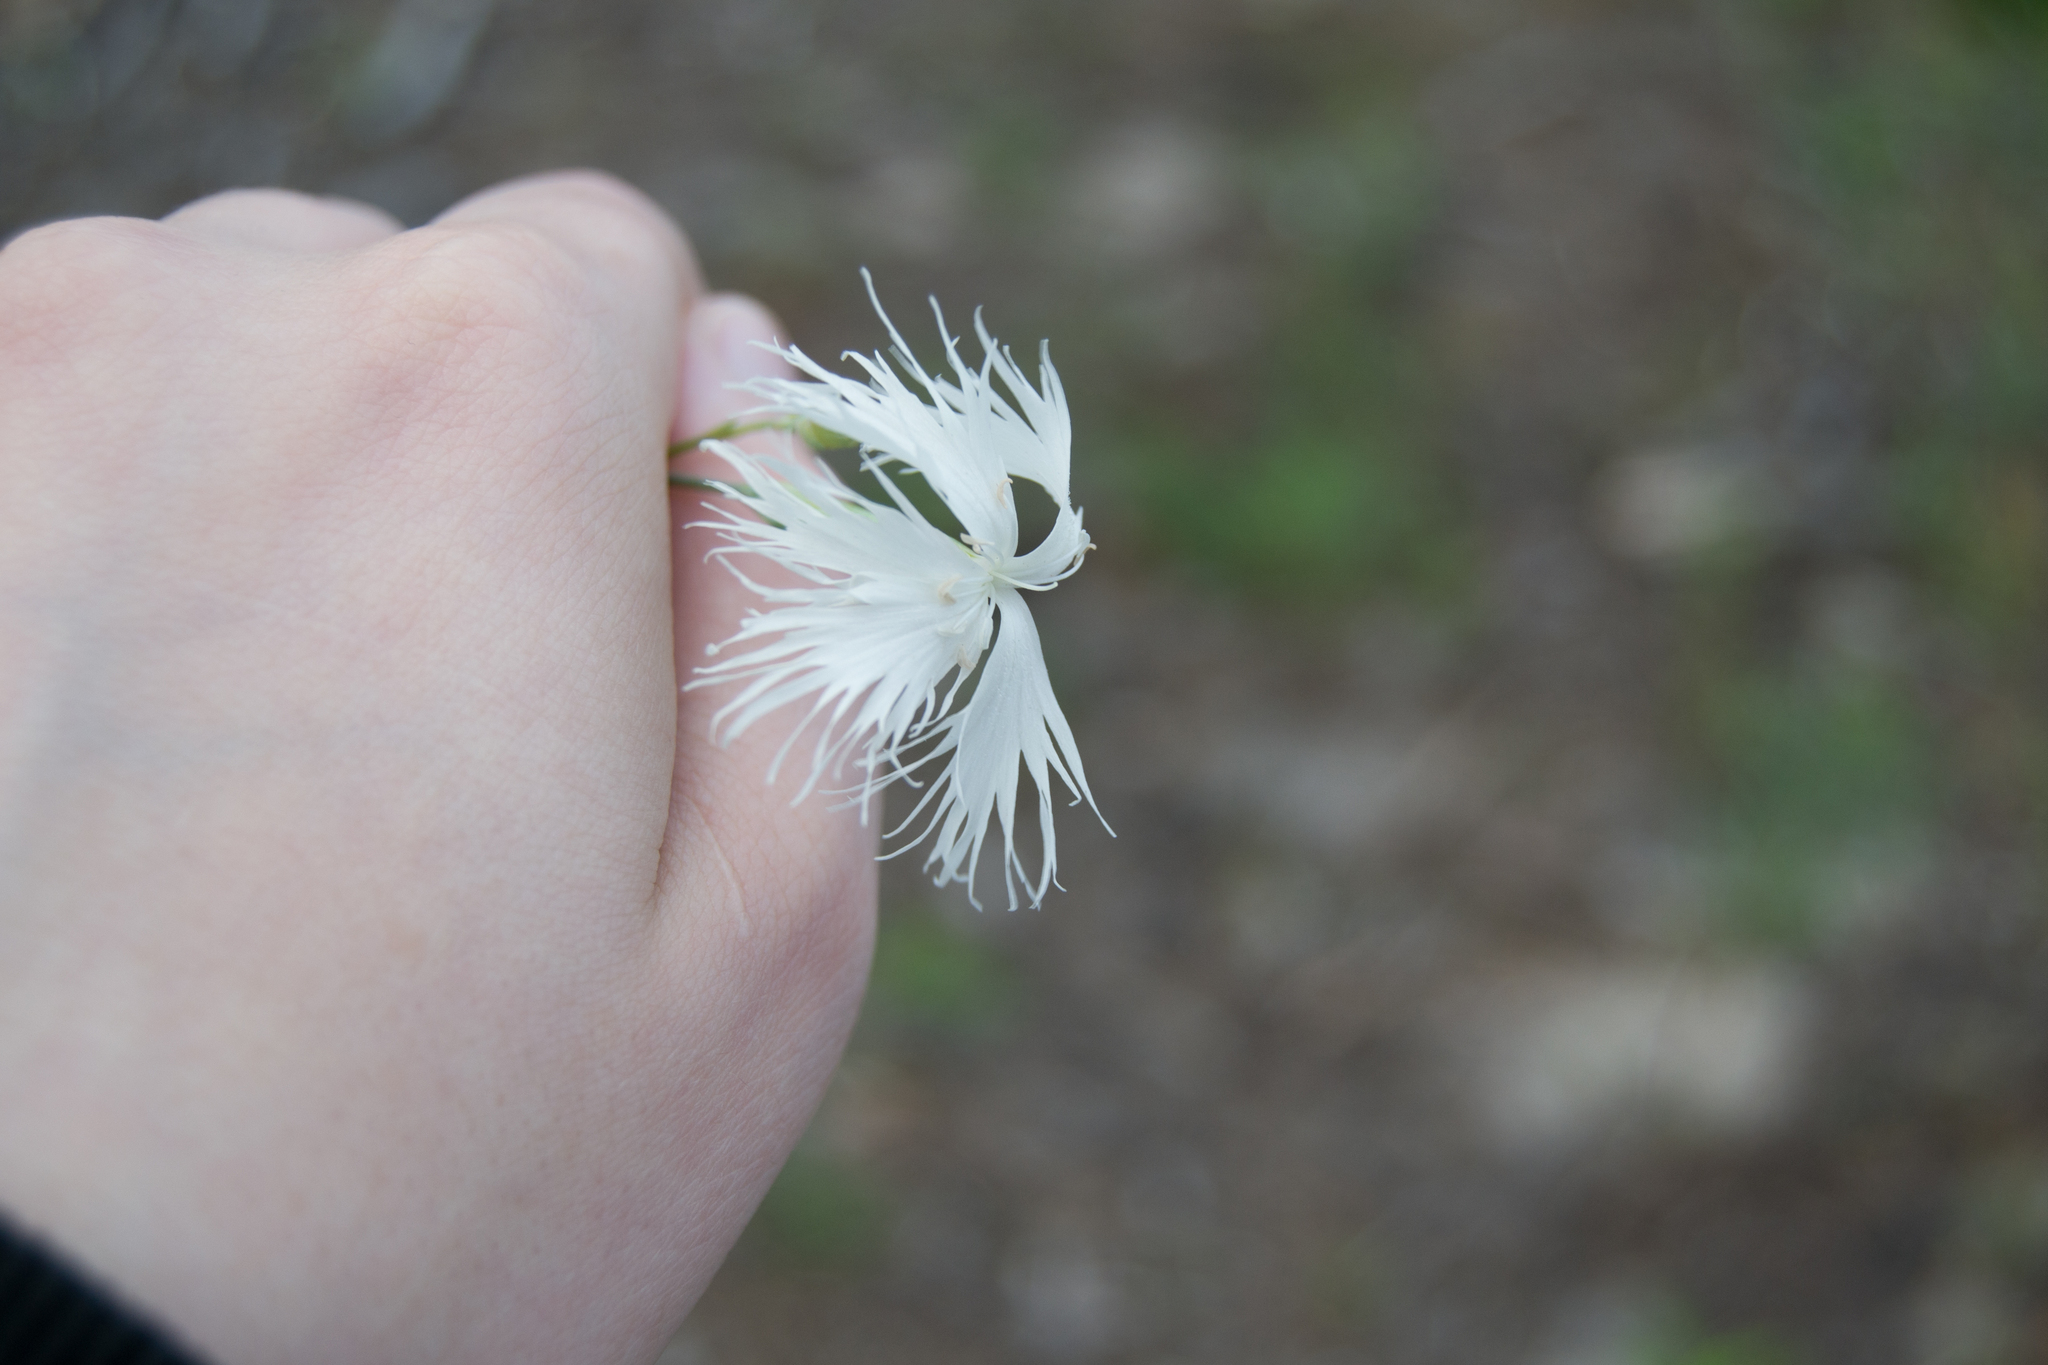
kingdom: Plantae
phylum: Tracheophyta
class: Magnoliopsida
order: Caryophyllales
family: Caryophyllaceae
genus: Dianthus
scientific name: Dianthus arenarius
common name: Stone pink
